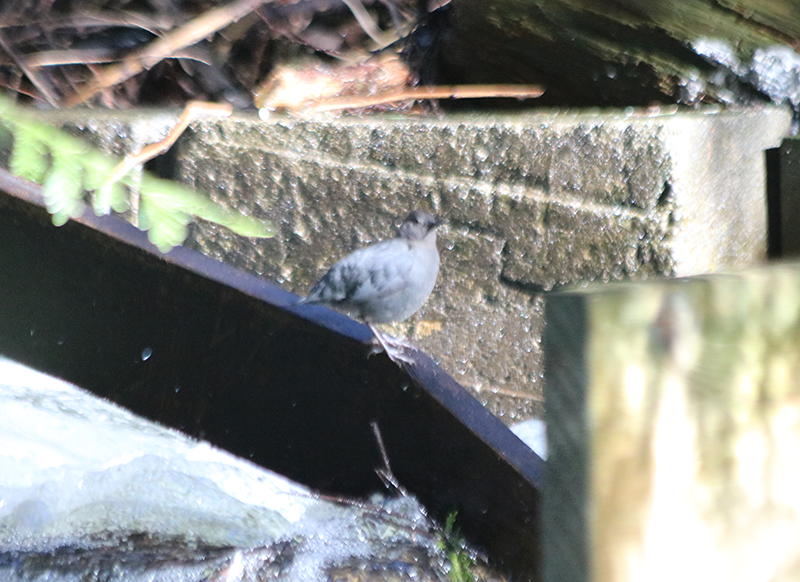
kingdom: Animalia
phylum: Chordata
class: Aves
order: Passeriformes
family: Cinclidae
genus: Cinclus
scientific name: Cinclus mexicanus
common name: American dipper
